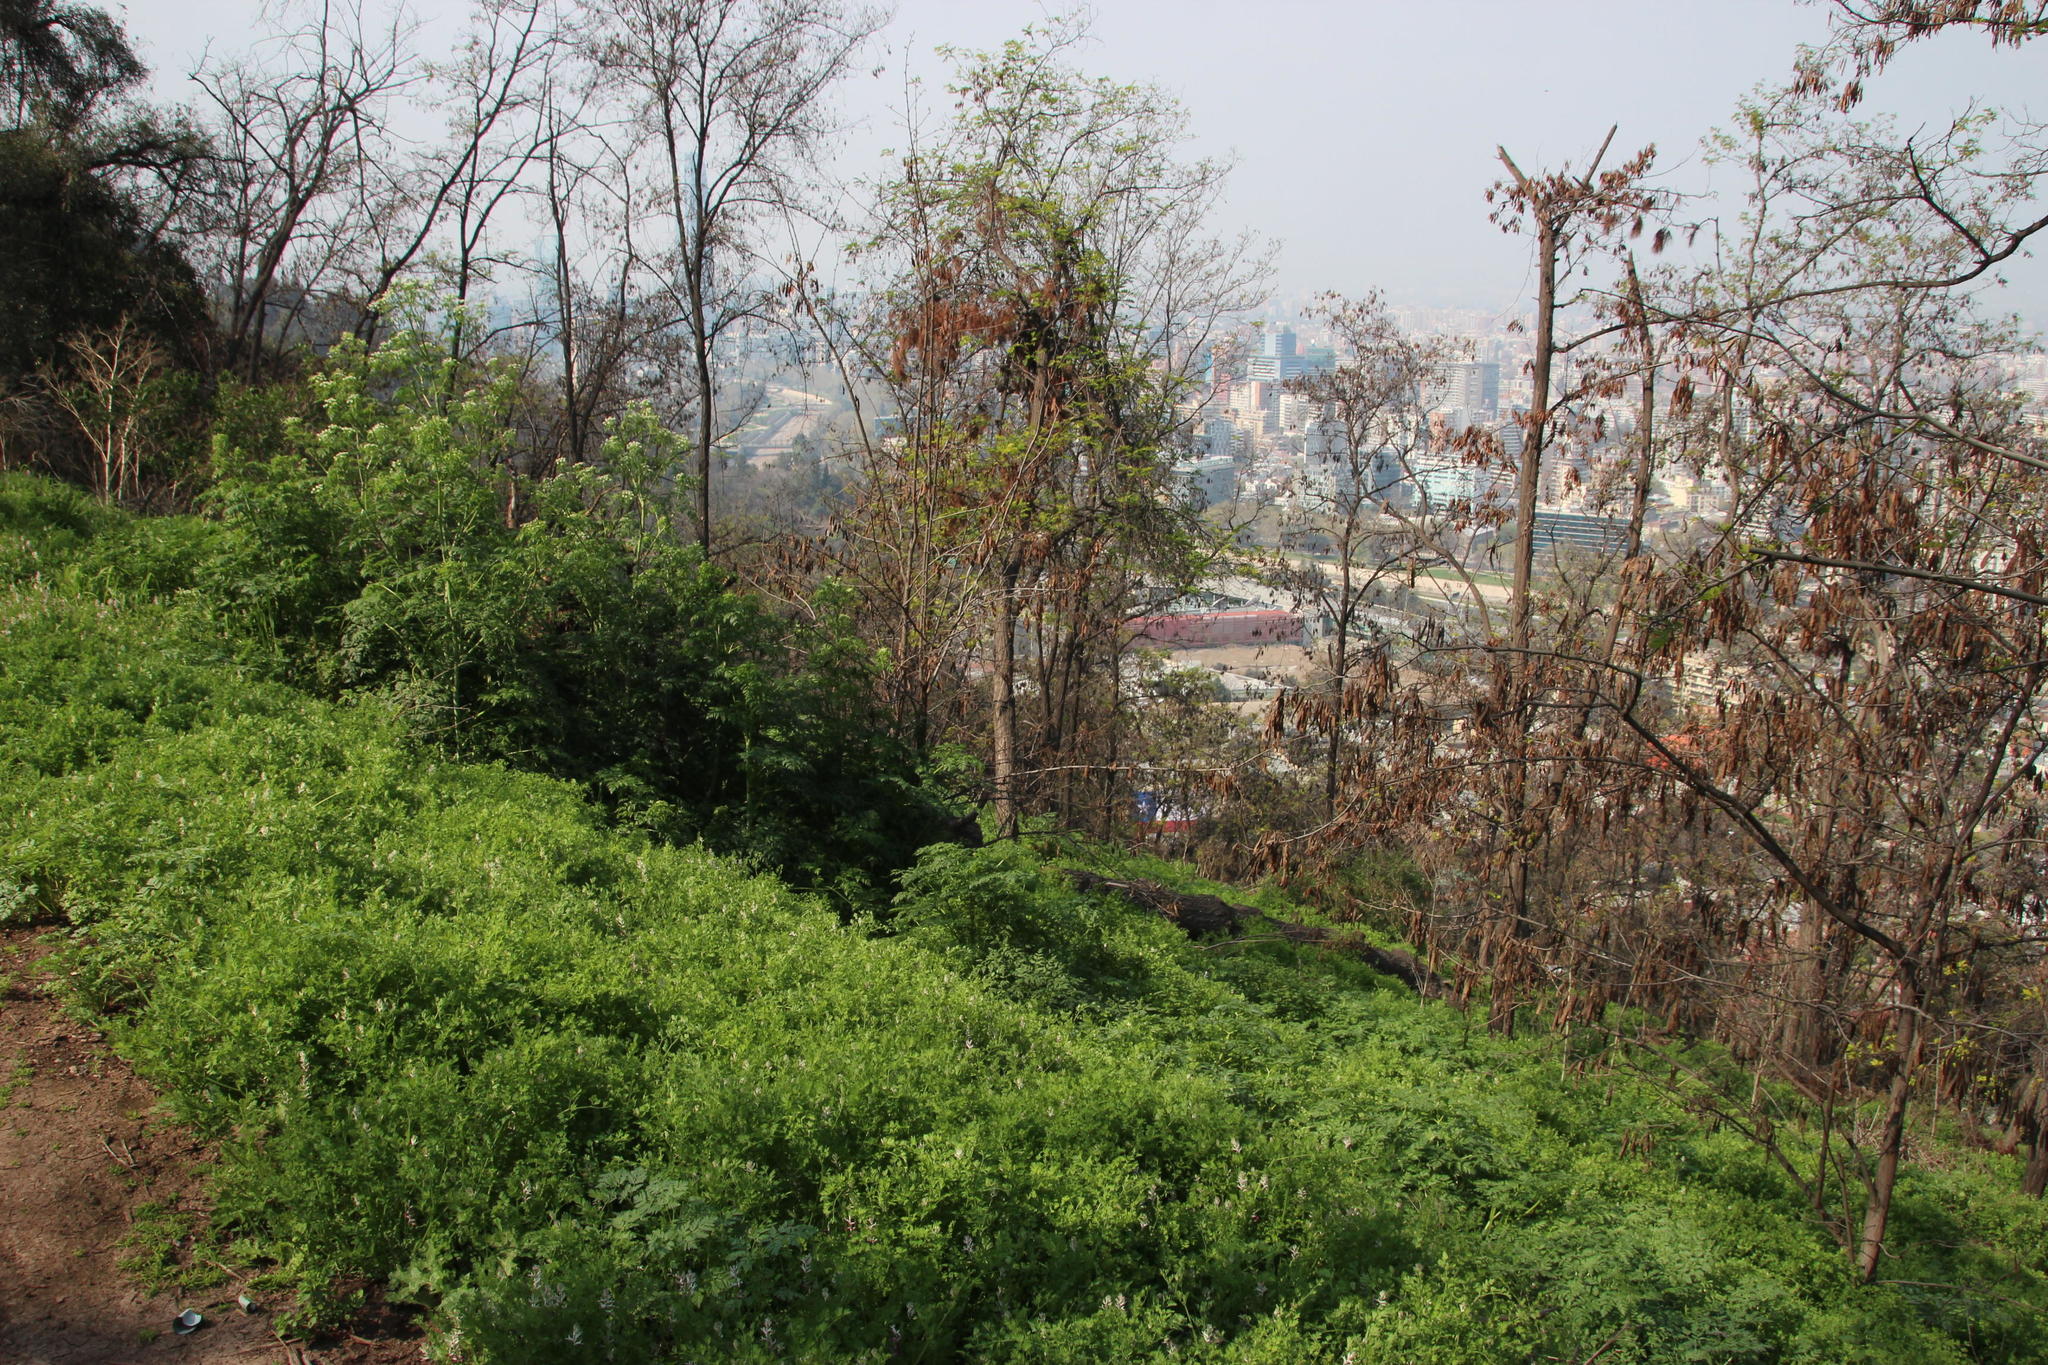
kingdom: Plantae
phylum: Tracheophyta
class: Magnoliopsida
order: Ranunculales
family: Papaveraceae
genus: Fumaria
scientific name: Fumaria capreolata
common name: White ramping-fumitory
